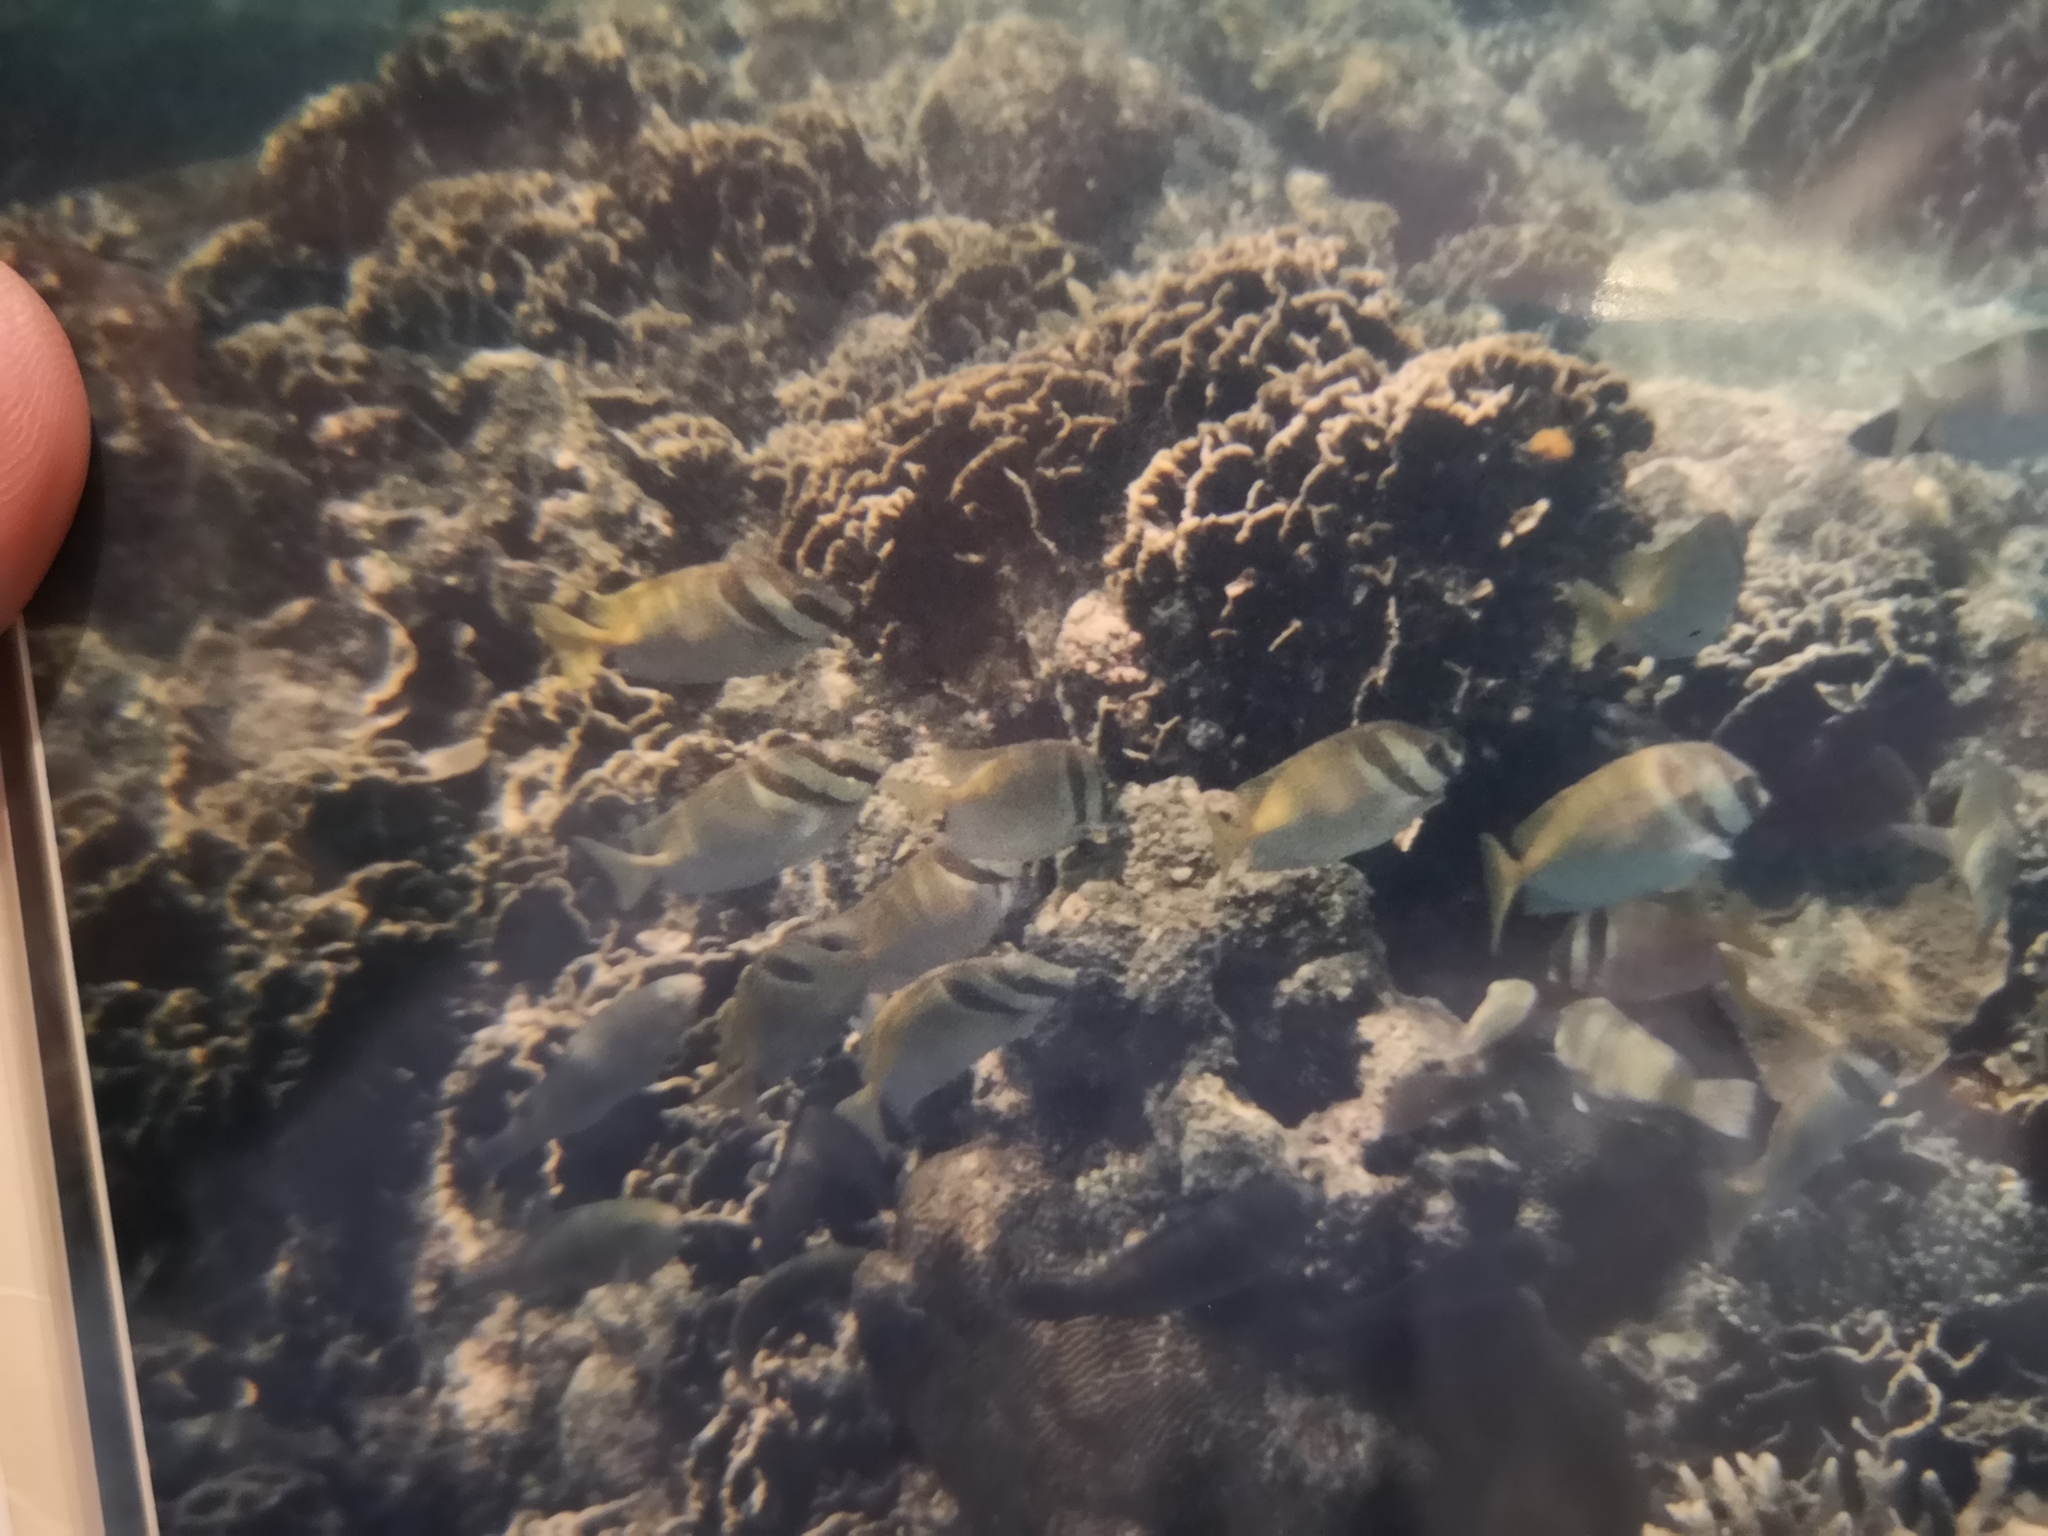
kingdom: Animalia
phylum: Chordata
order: Perciformes
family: Siganidae
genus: Siganus
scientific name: Siganus virgatus
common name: Barhead spinefoot
